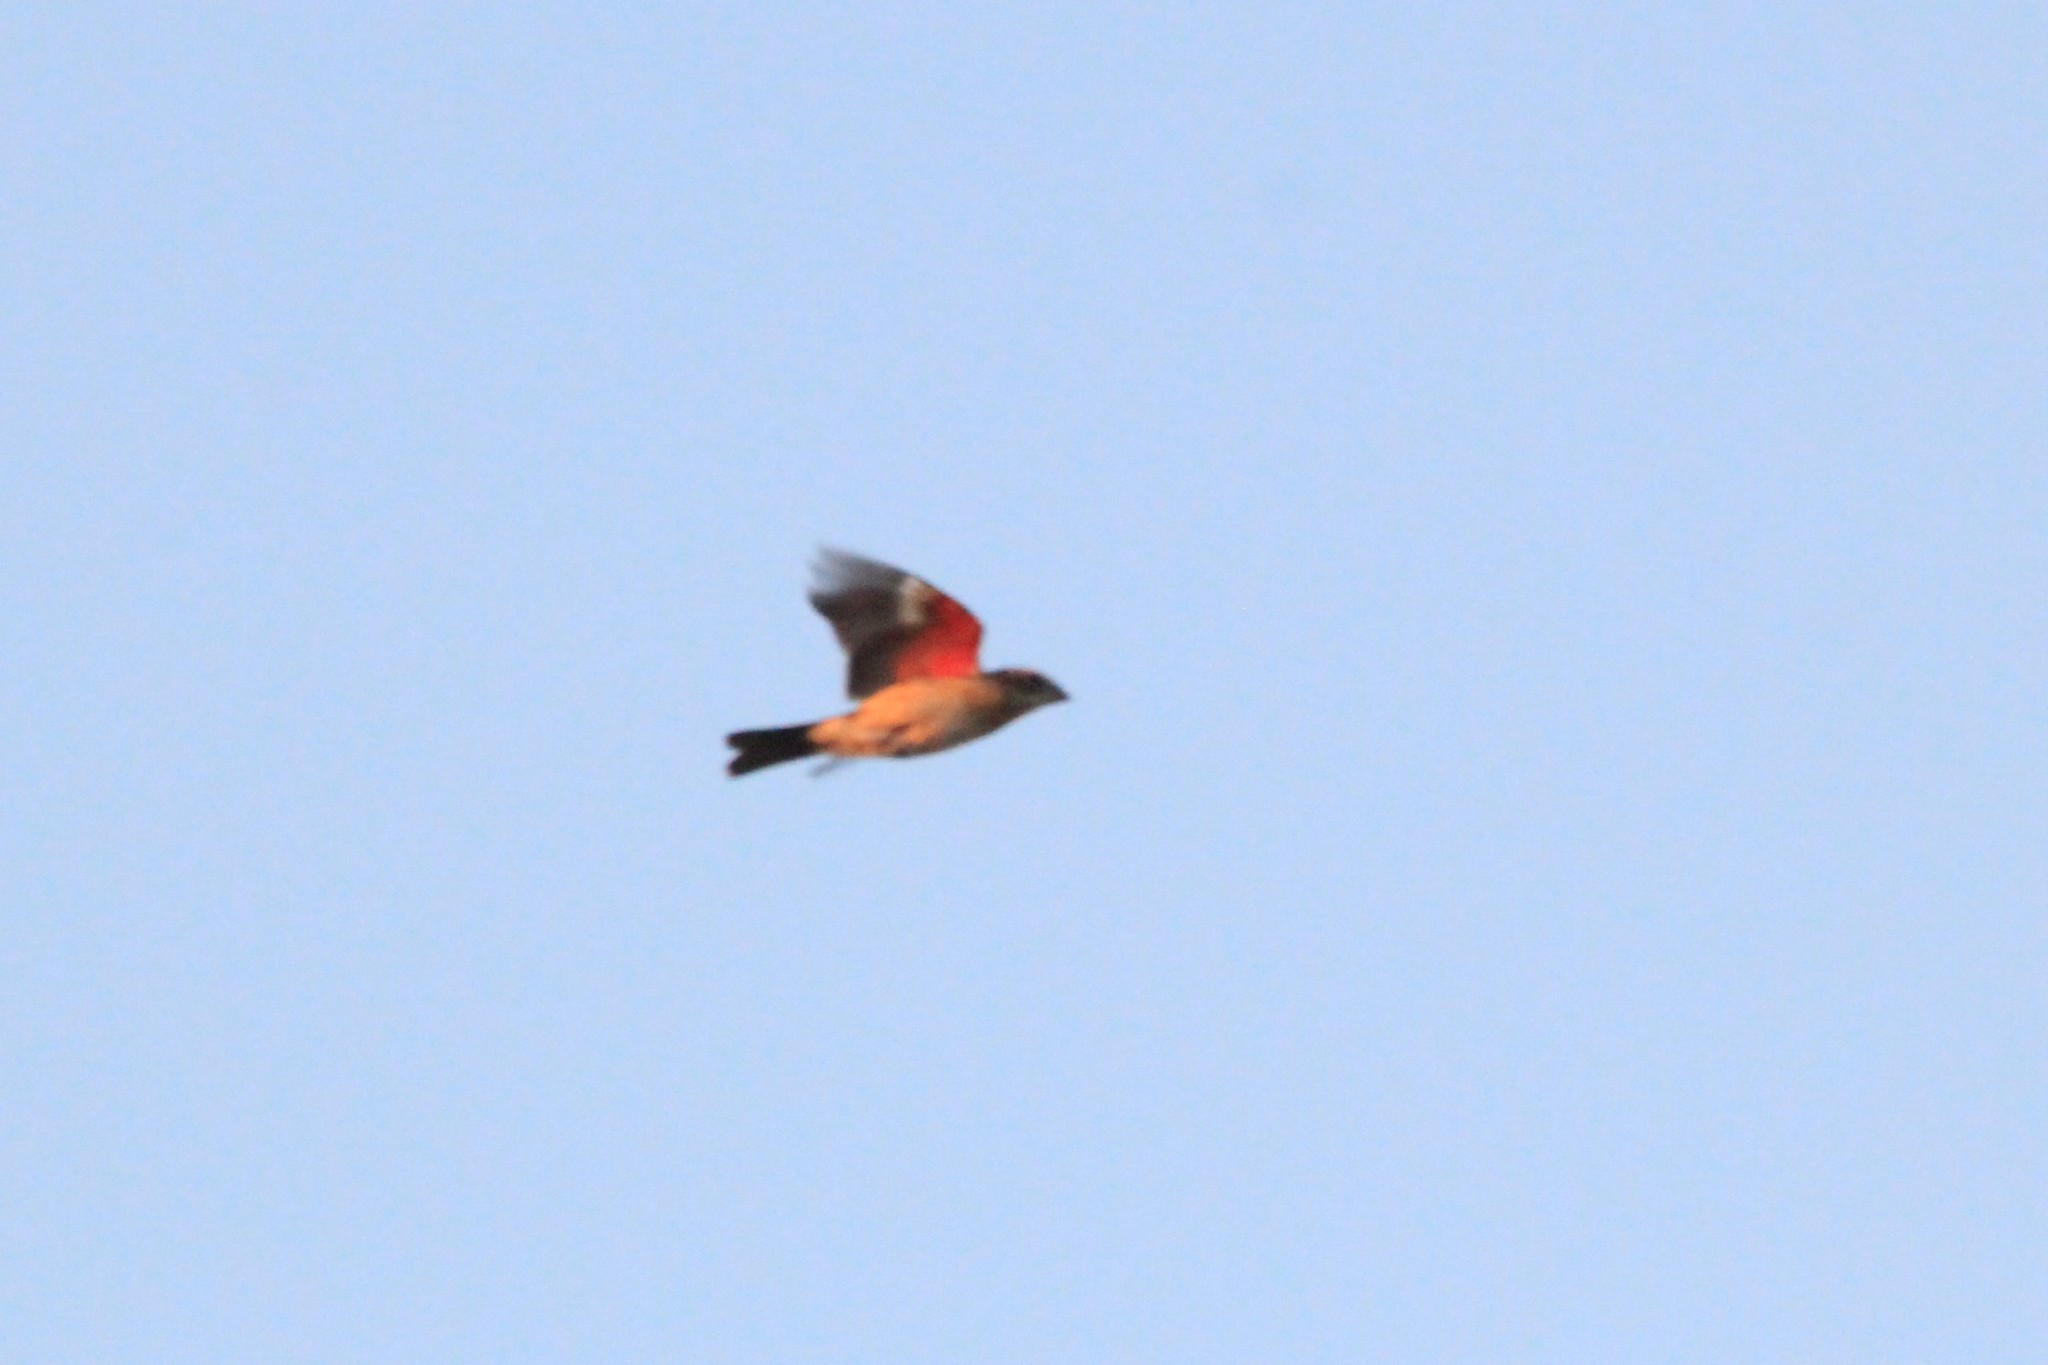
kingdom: Animalia
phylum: Chordata
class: Aves
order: Passeriformes
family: Cardinalidae
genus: Pheucticus
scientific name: Pheucticus ludovicianus
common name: Rose-breasted grosbeak
